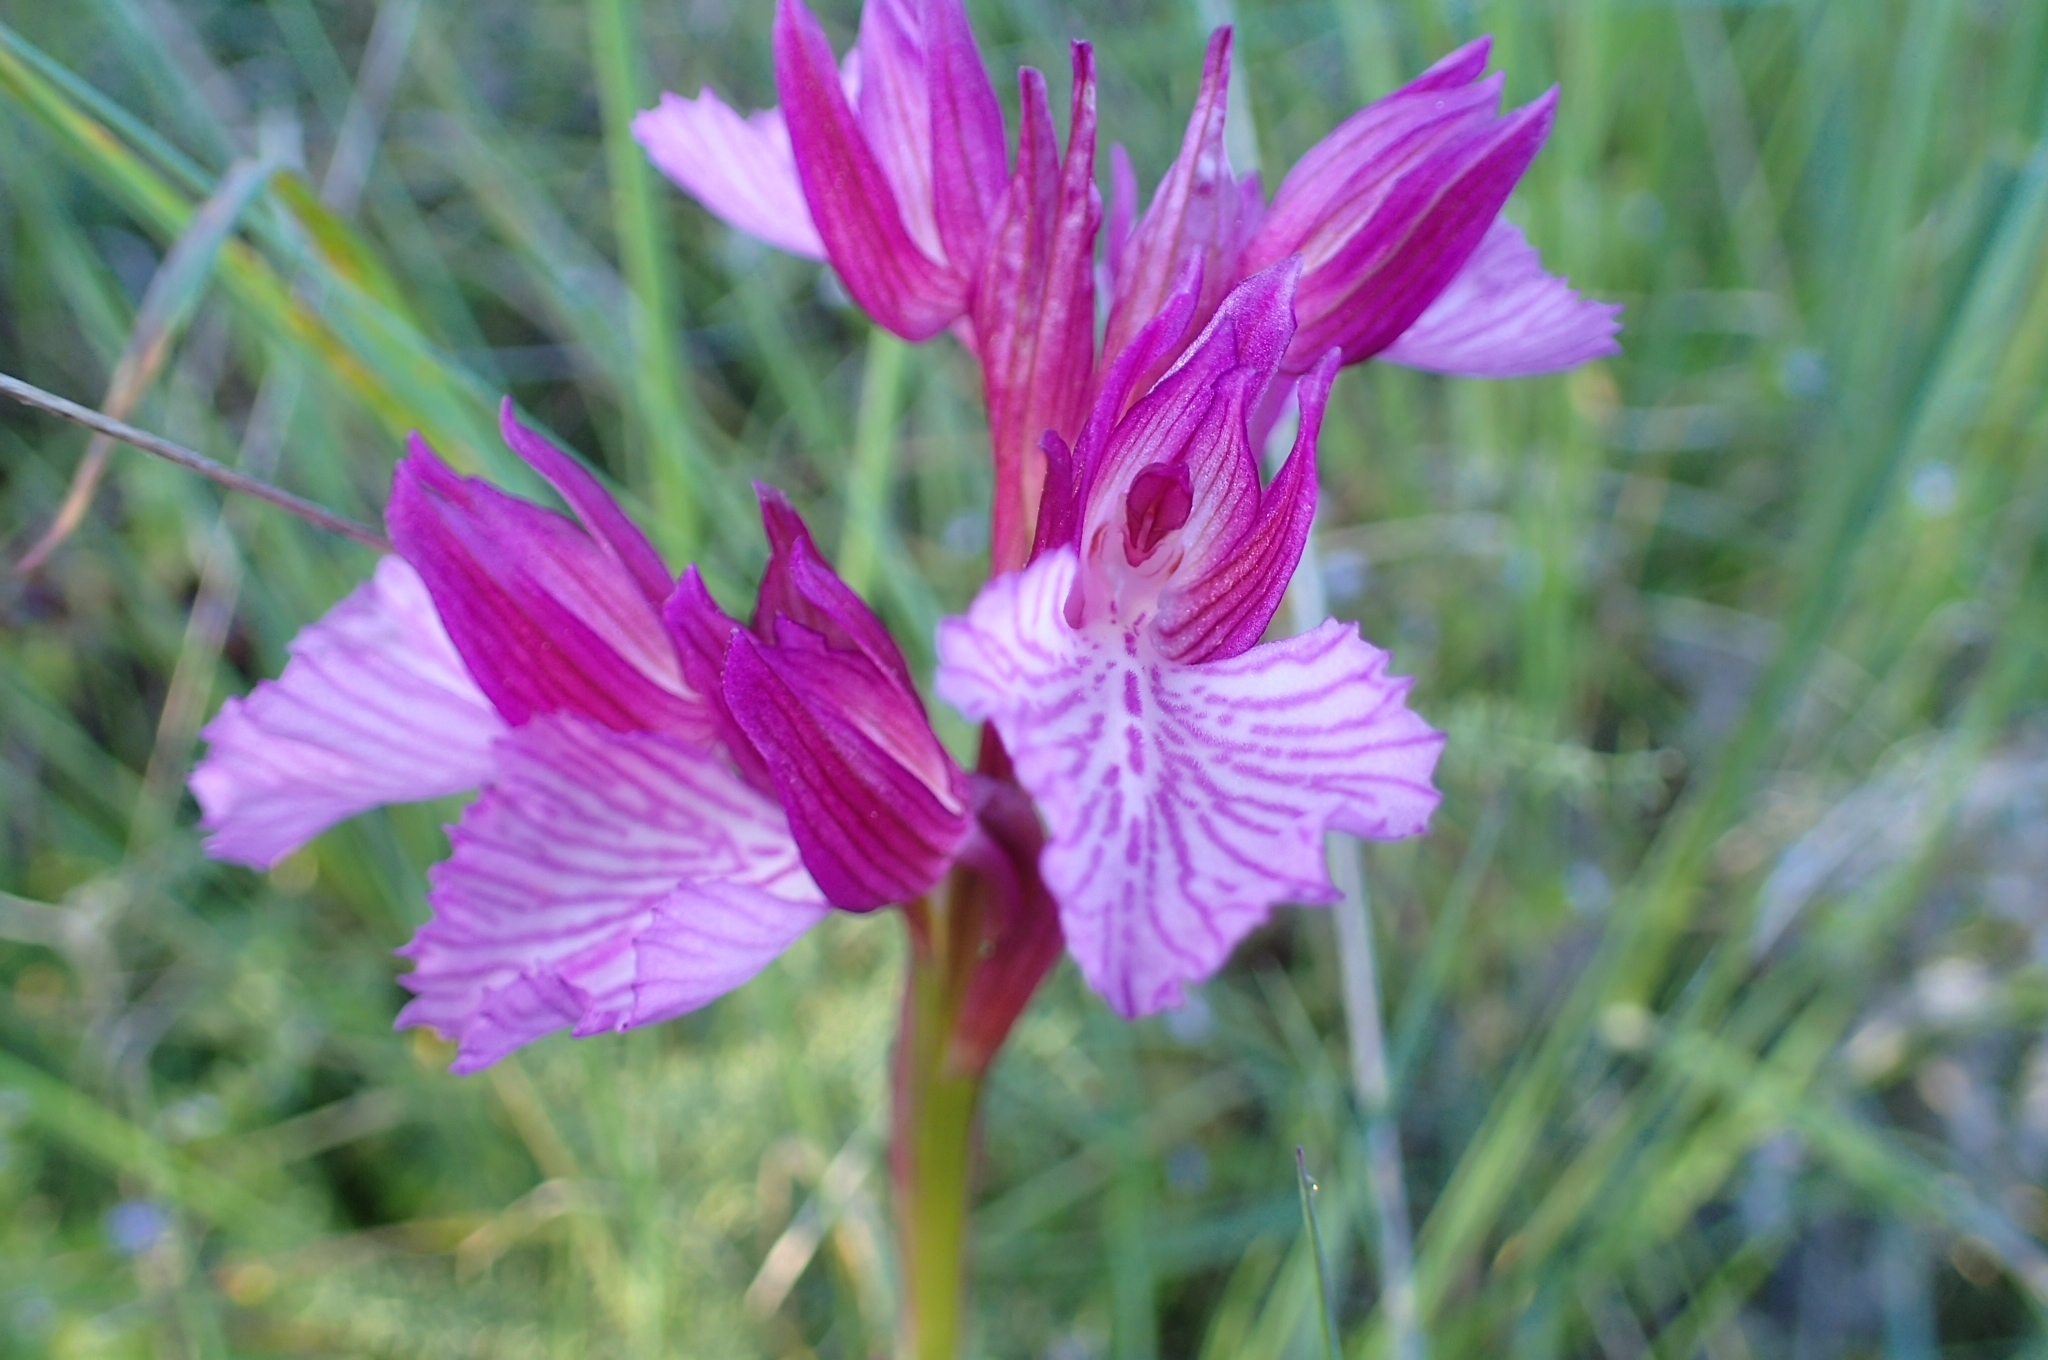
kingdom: Plantae
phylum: Tracheophyta
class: Liliopsida
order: Asparagales
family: Orchidaceae
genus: Anacamptis
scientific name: Anacamptis papilionacea
